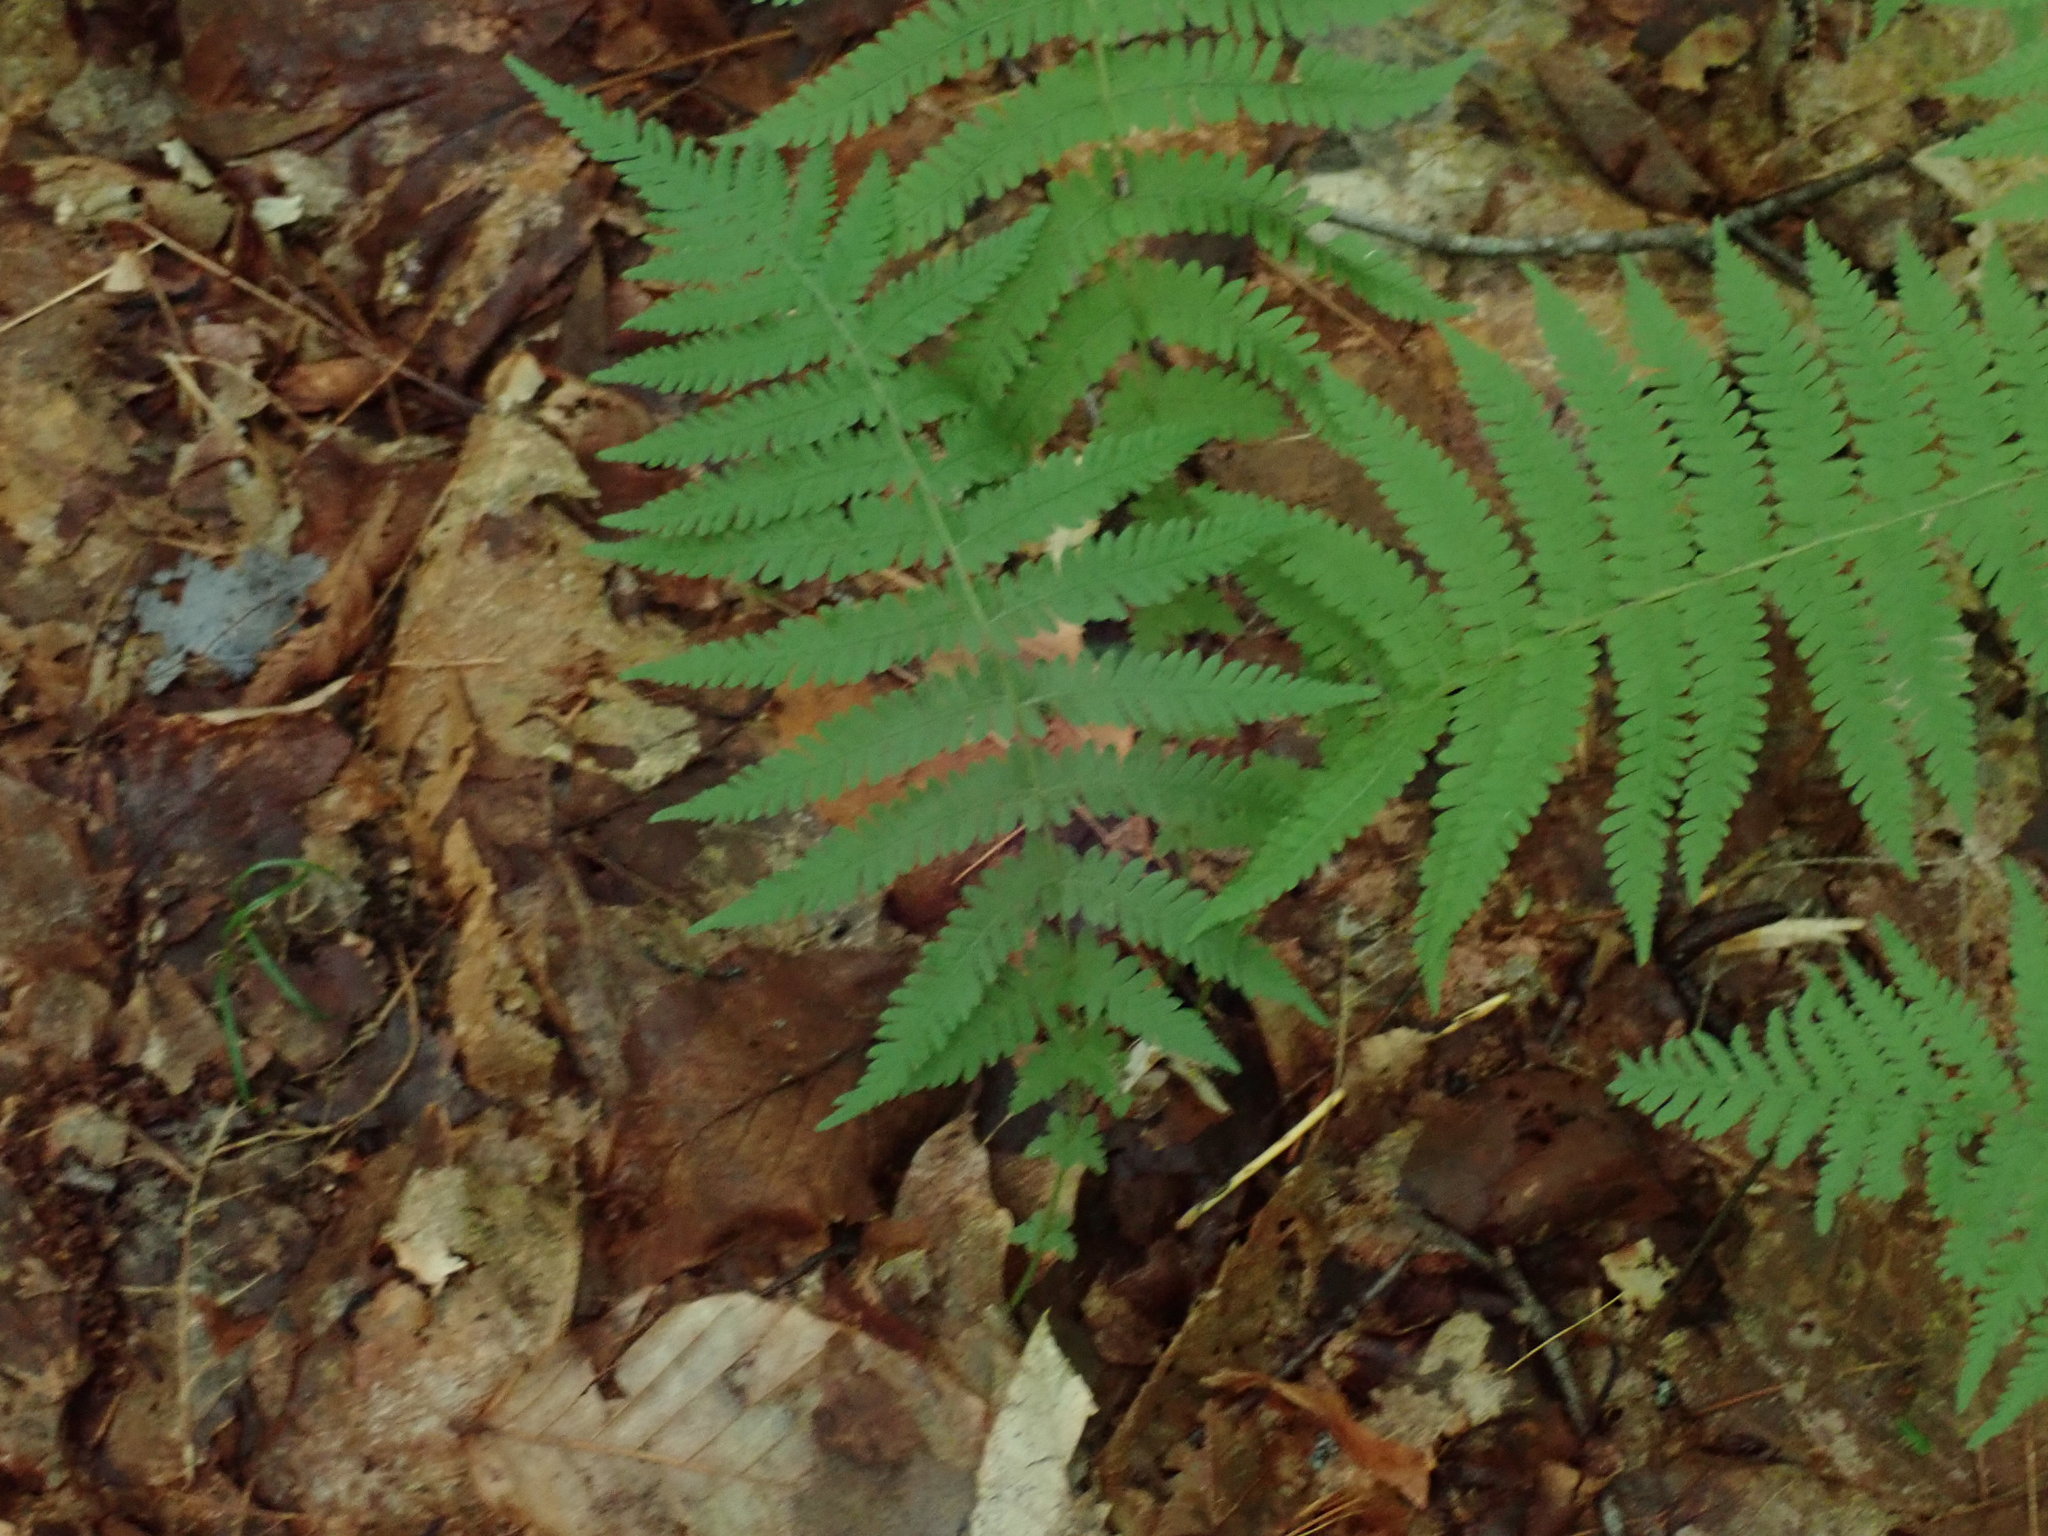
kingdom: Plantae
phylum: Tracheophyta
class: Polypodiopsida
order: Polypodiales
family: Thelypteridaceae
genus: Amauropelta
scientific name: Amauropelta noveboracensis
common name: New york fern
